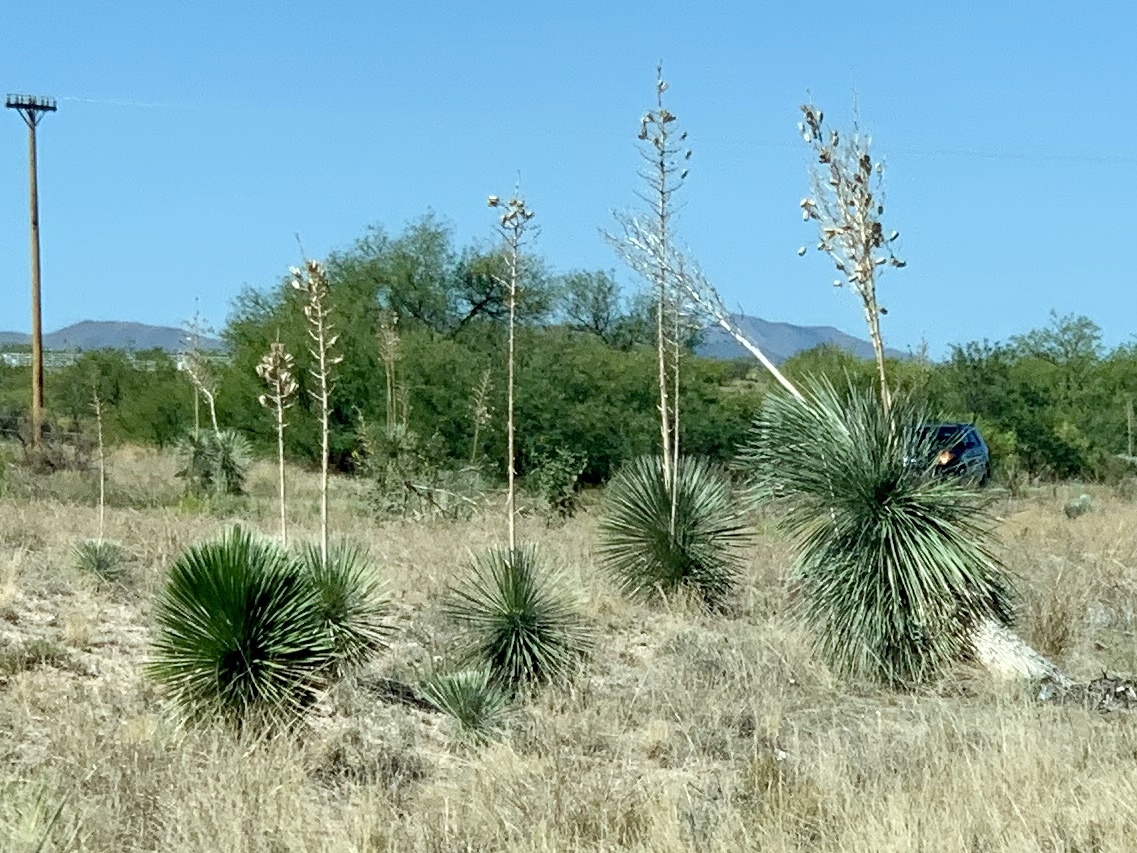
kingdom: Plantae
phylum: Tracheophyta
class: Liliopsida
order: Asparagales
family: Asparagaceae
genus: Yucca
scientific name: Yucca elata
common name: Palmella
